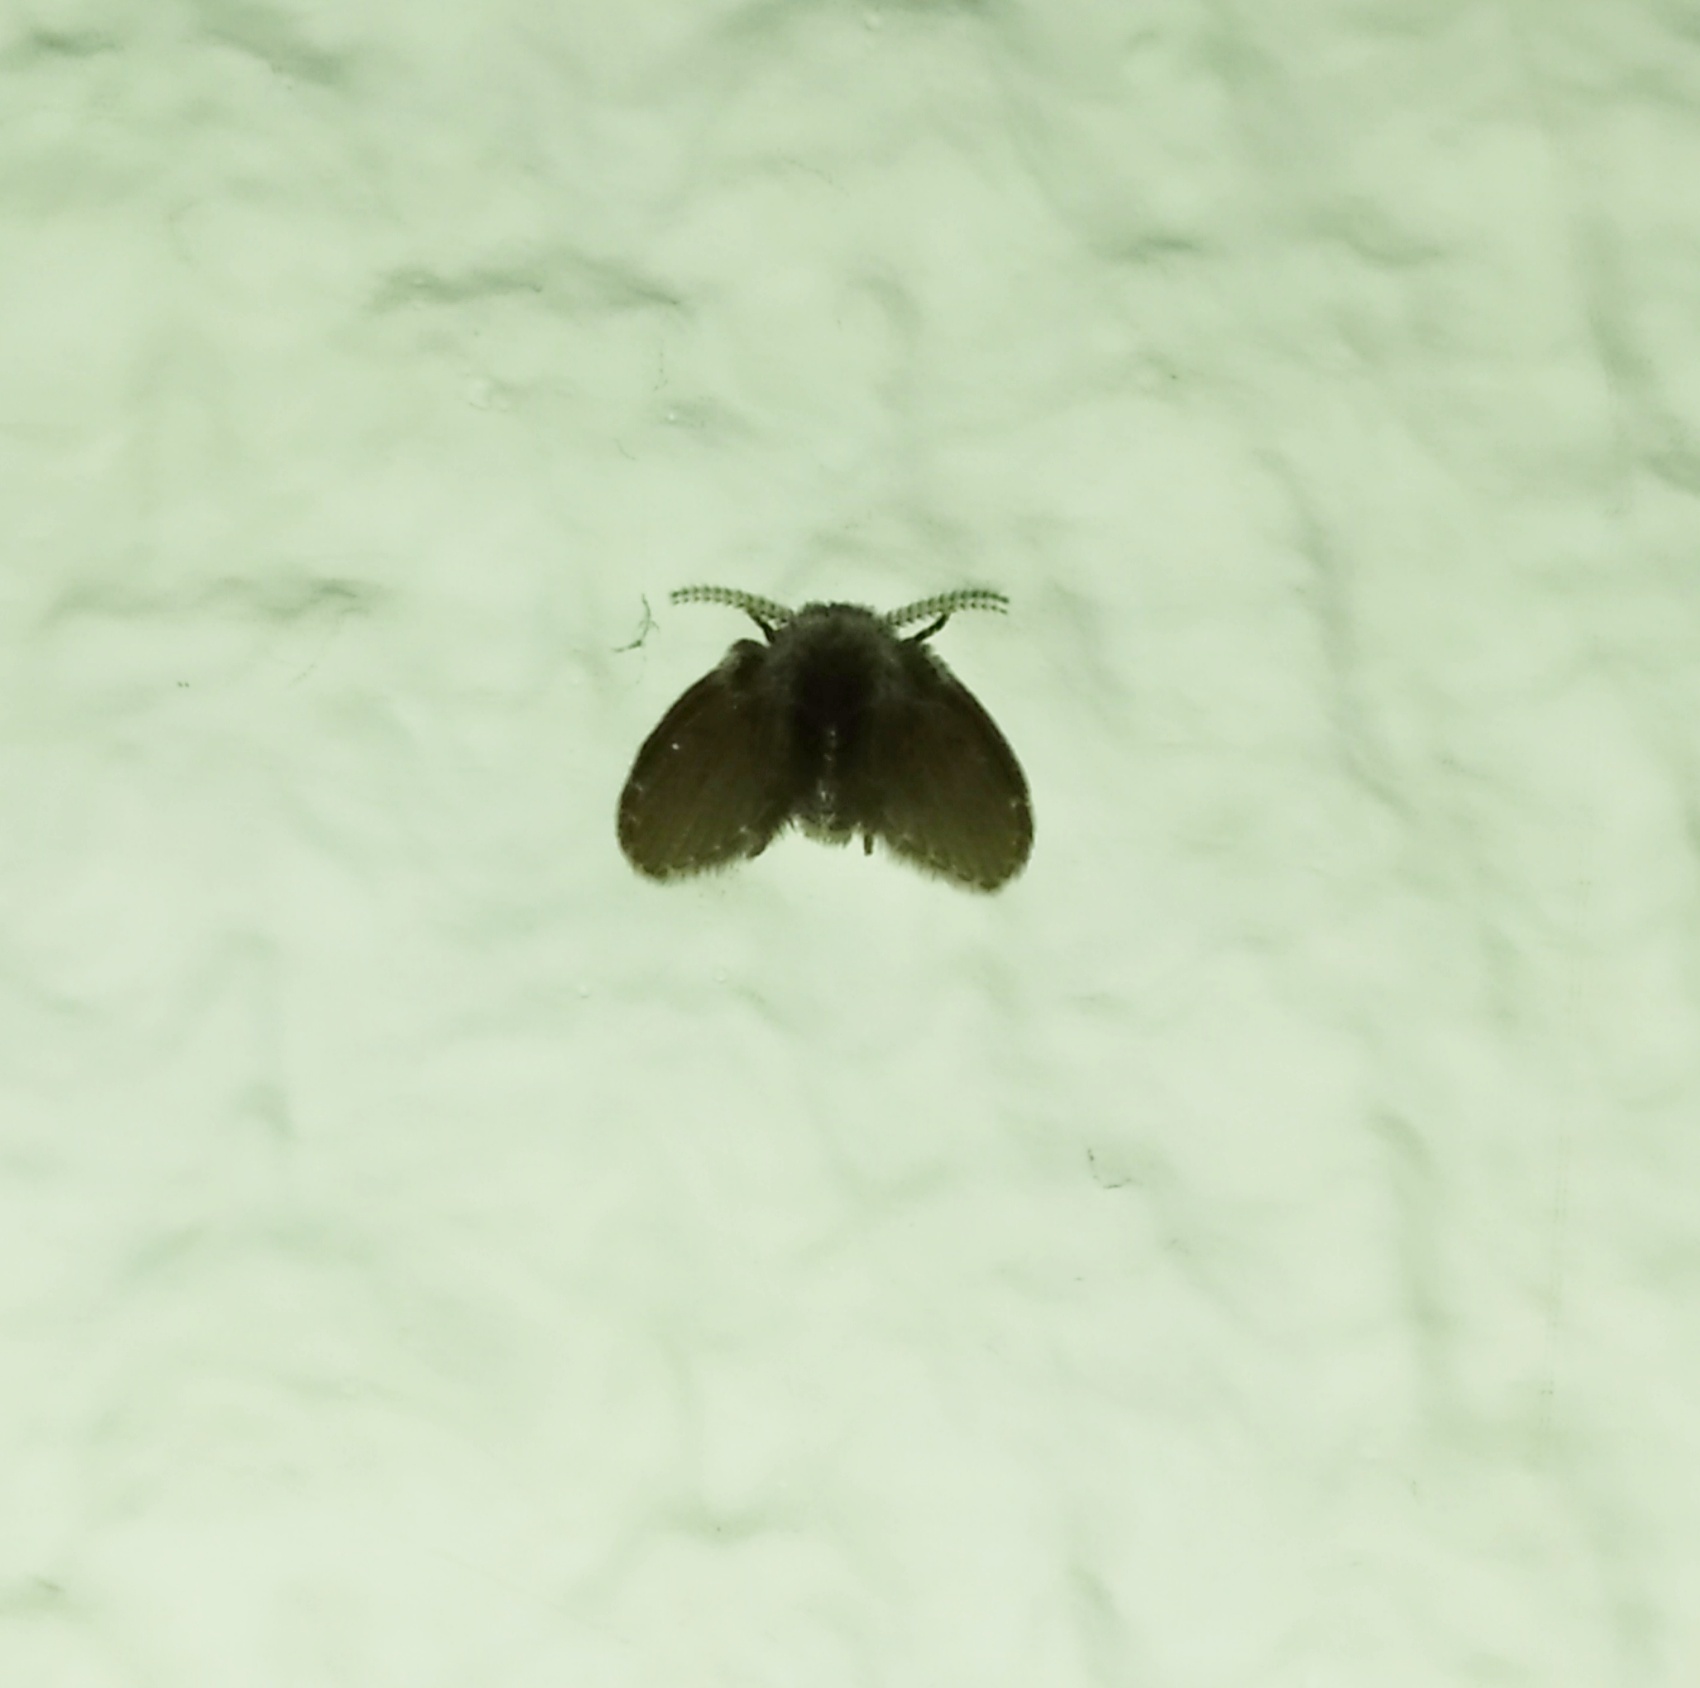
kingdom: Animalia
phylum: Arthropoda
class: Insecta
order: Diptera
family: Psychodidae
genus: Clogmia
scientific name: Clogmia albipunctatus
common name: White-spotted moth fly
